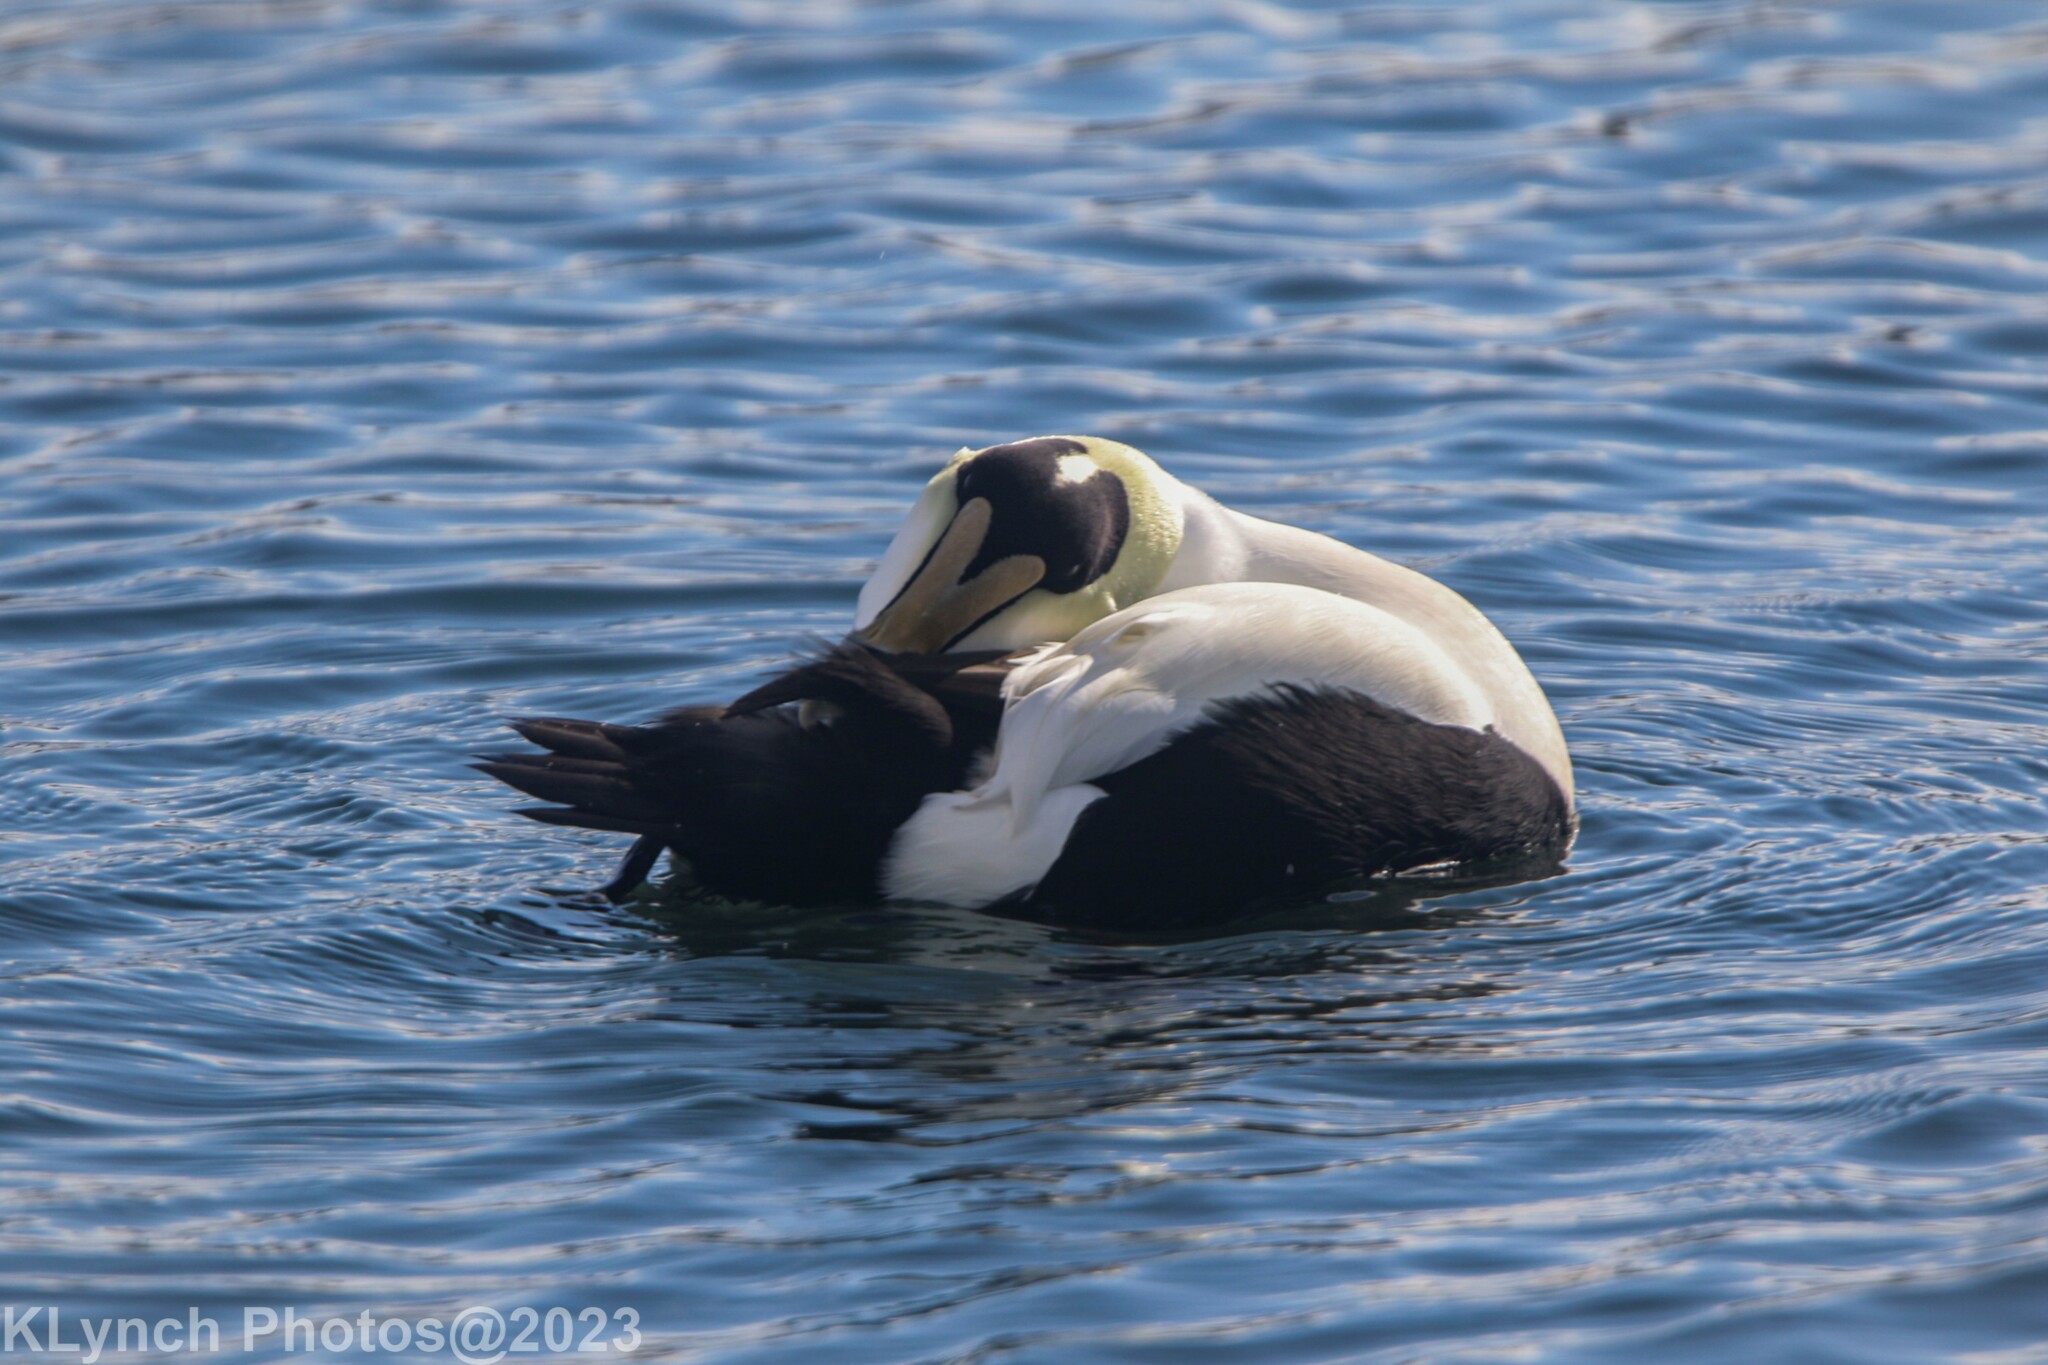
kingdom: Animalia
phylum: Chordata
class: Aves
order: Anseriformes
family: Anatidae
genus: Somateria
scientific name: Somateria mollissima
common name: Common eider
